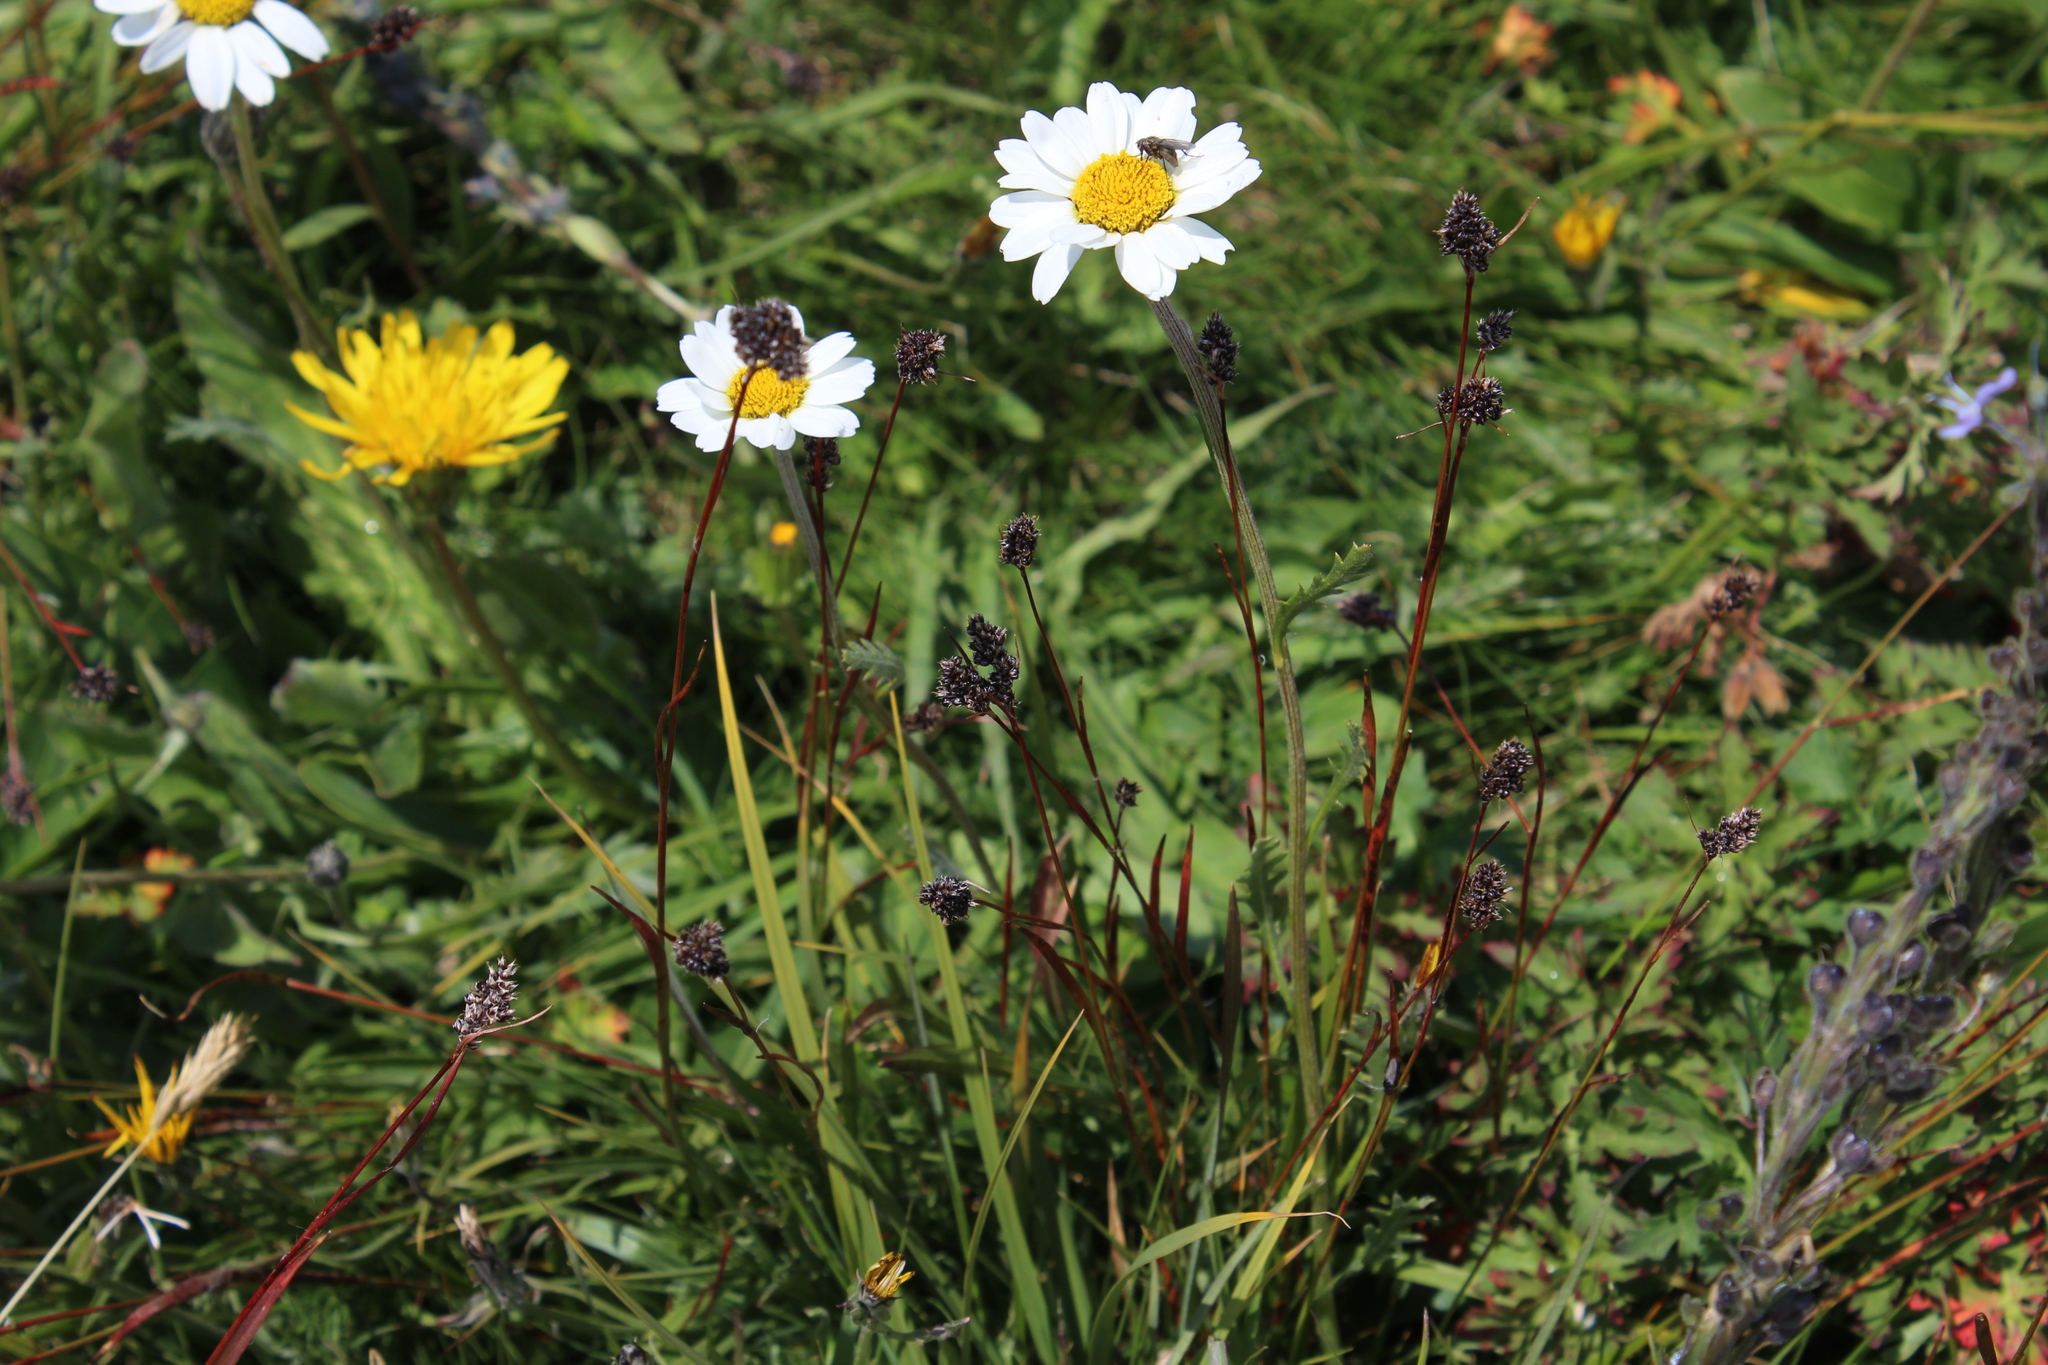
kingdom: Plantae
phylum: Tracheophyta
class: Liliopsida
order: Poales
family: Juncaceae
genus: Luzula
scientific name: Luzula stenophylla
